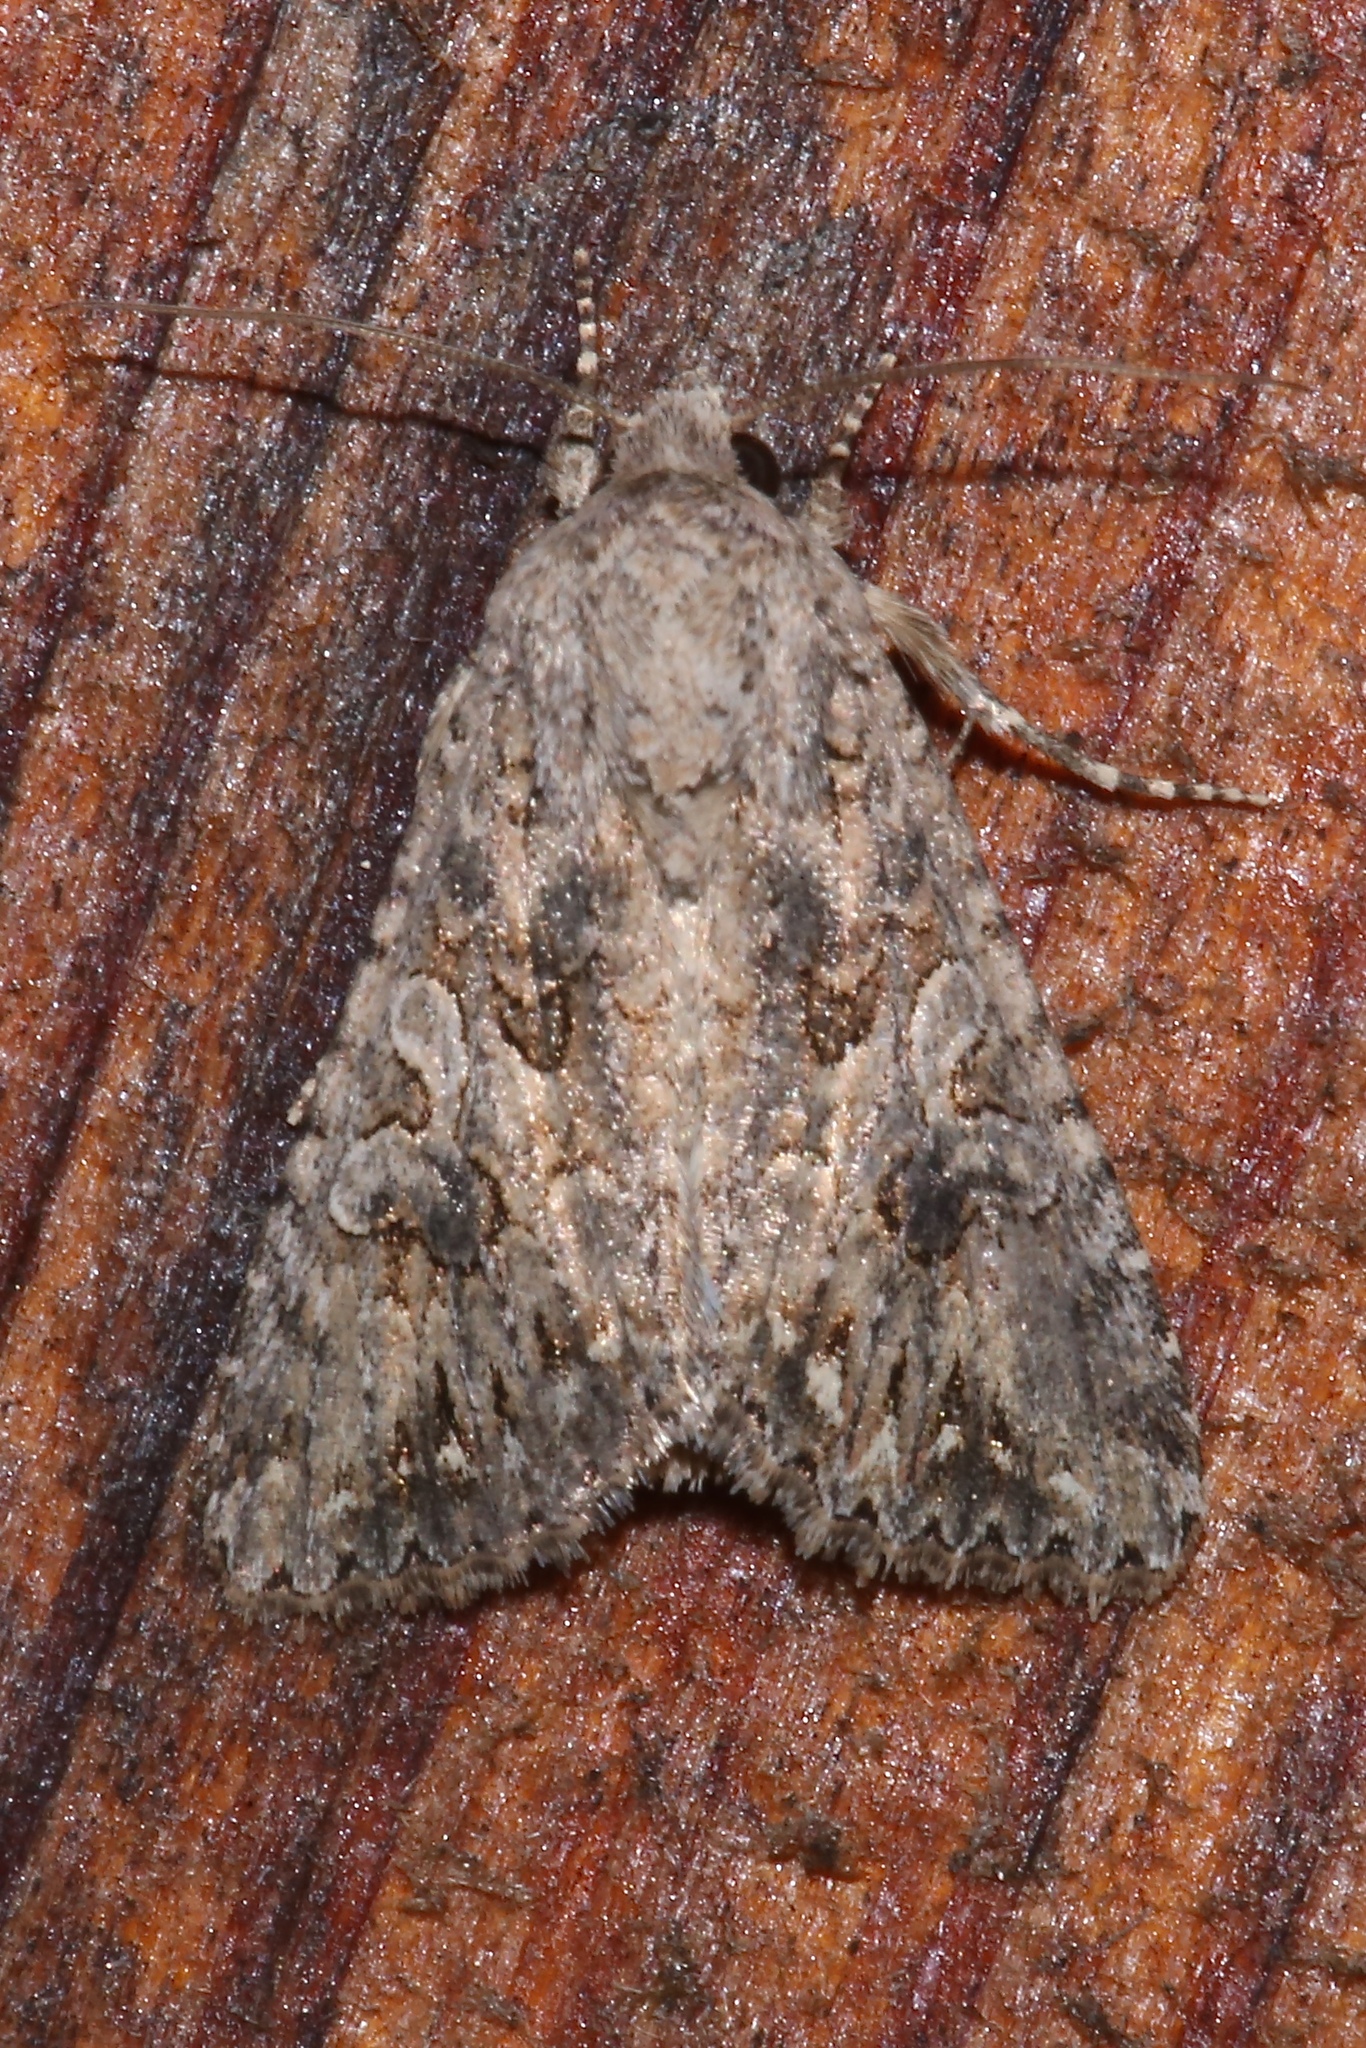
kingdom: Animalia
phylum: Arthropoda
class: Insecta
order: Lepidoptera
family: Noctuidae
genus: Anarta
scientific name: Anarta trifolii
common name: Clover cutworm moth
